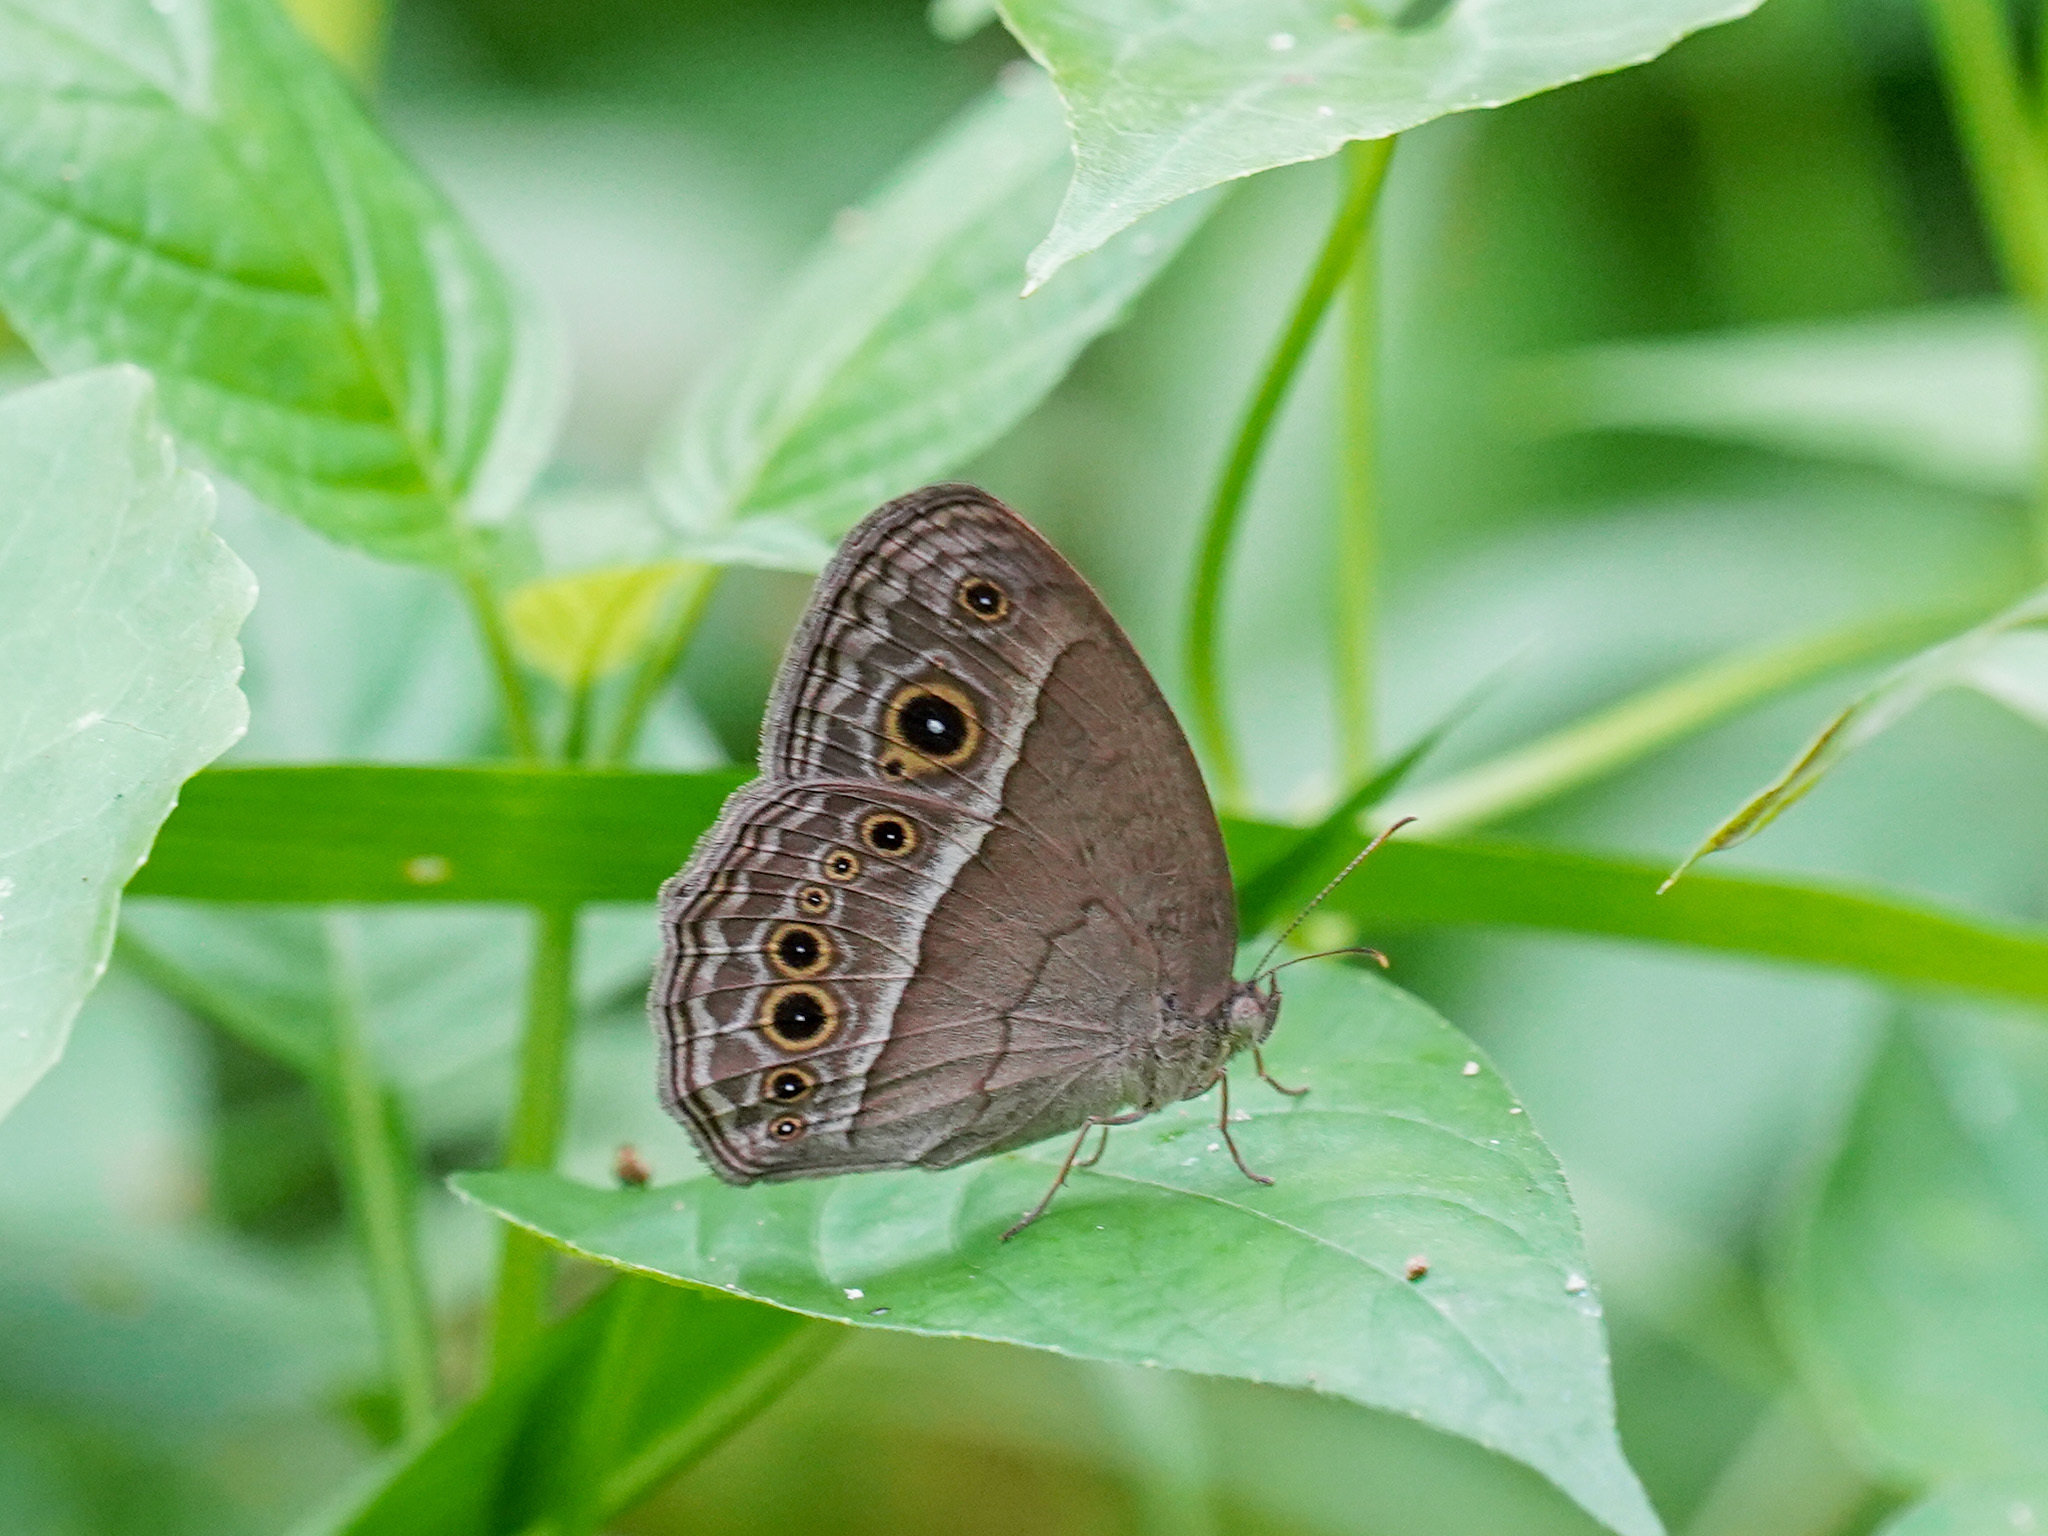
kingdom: Animalia
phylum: Arthropoda
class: Insecta
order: Lepidoptera
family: Nymphalidae
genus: Mycalesis
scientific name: Mycalesis perseoides
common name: Burmese bushbrown
